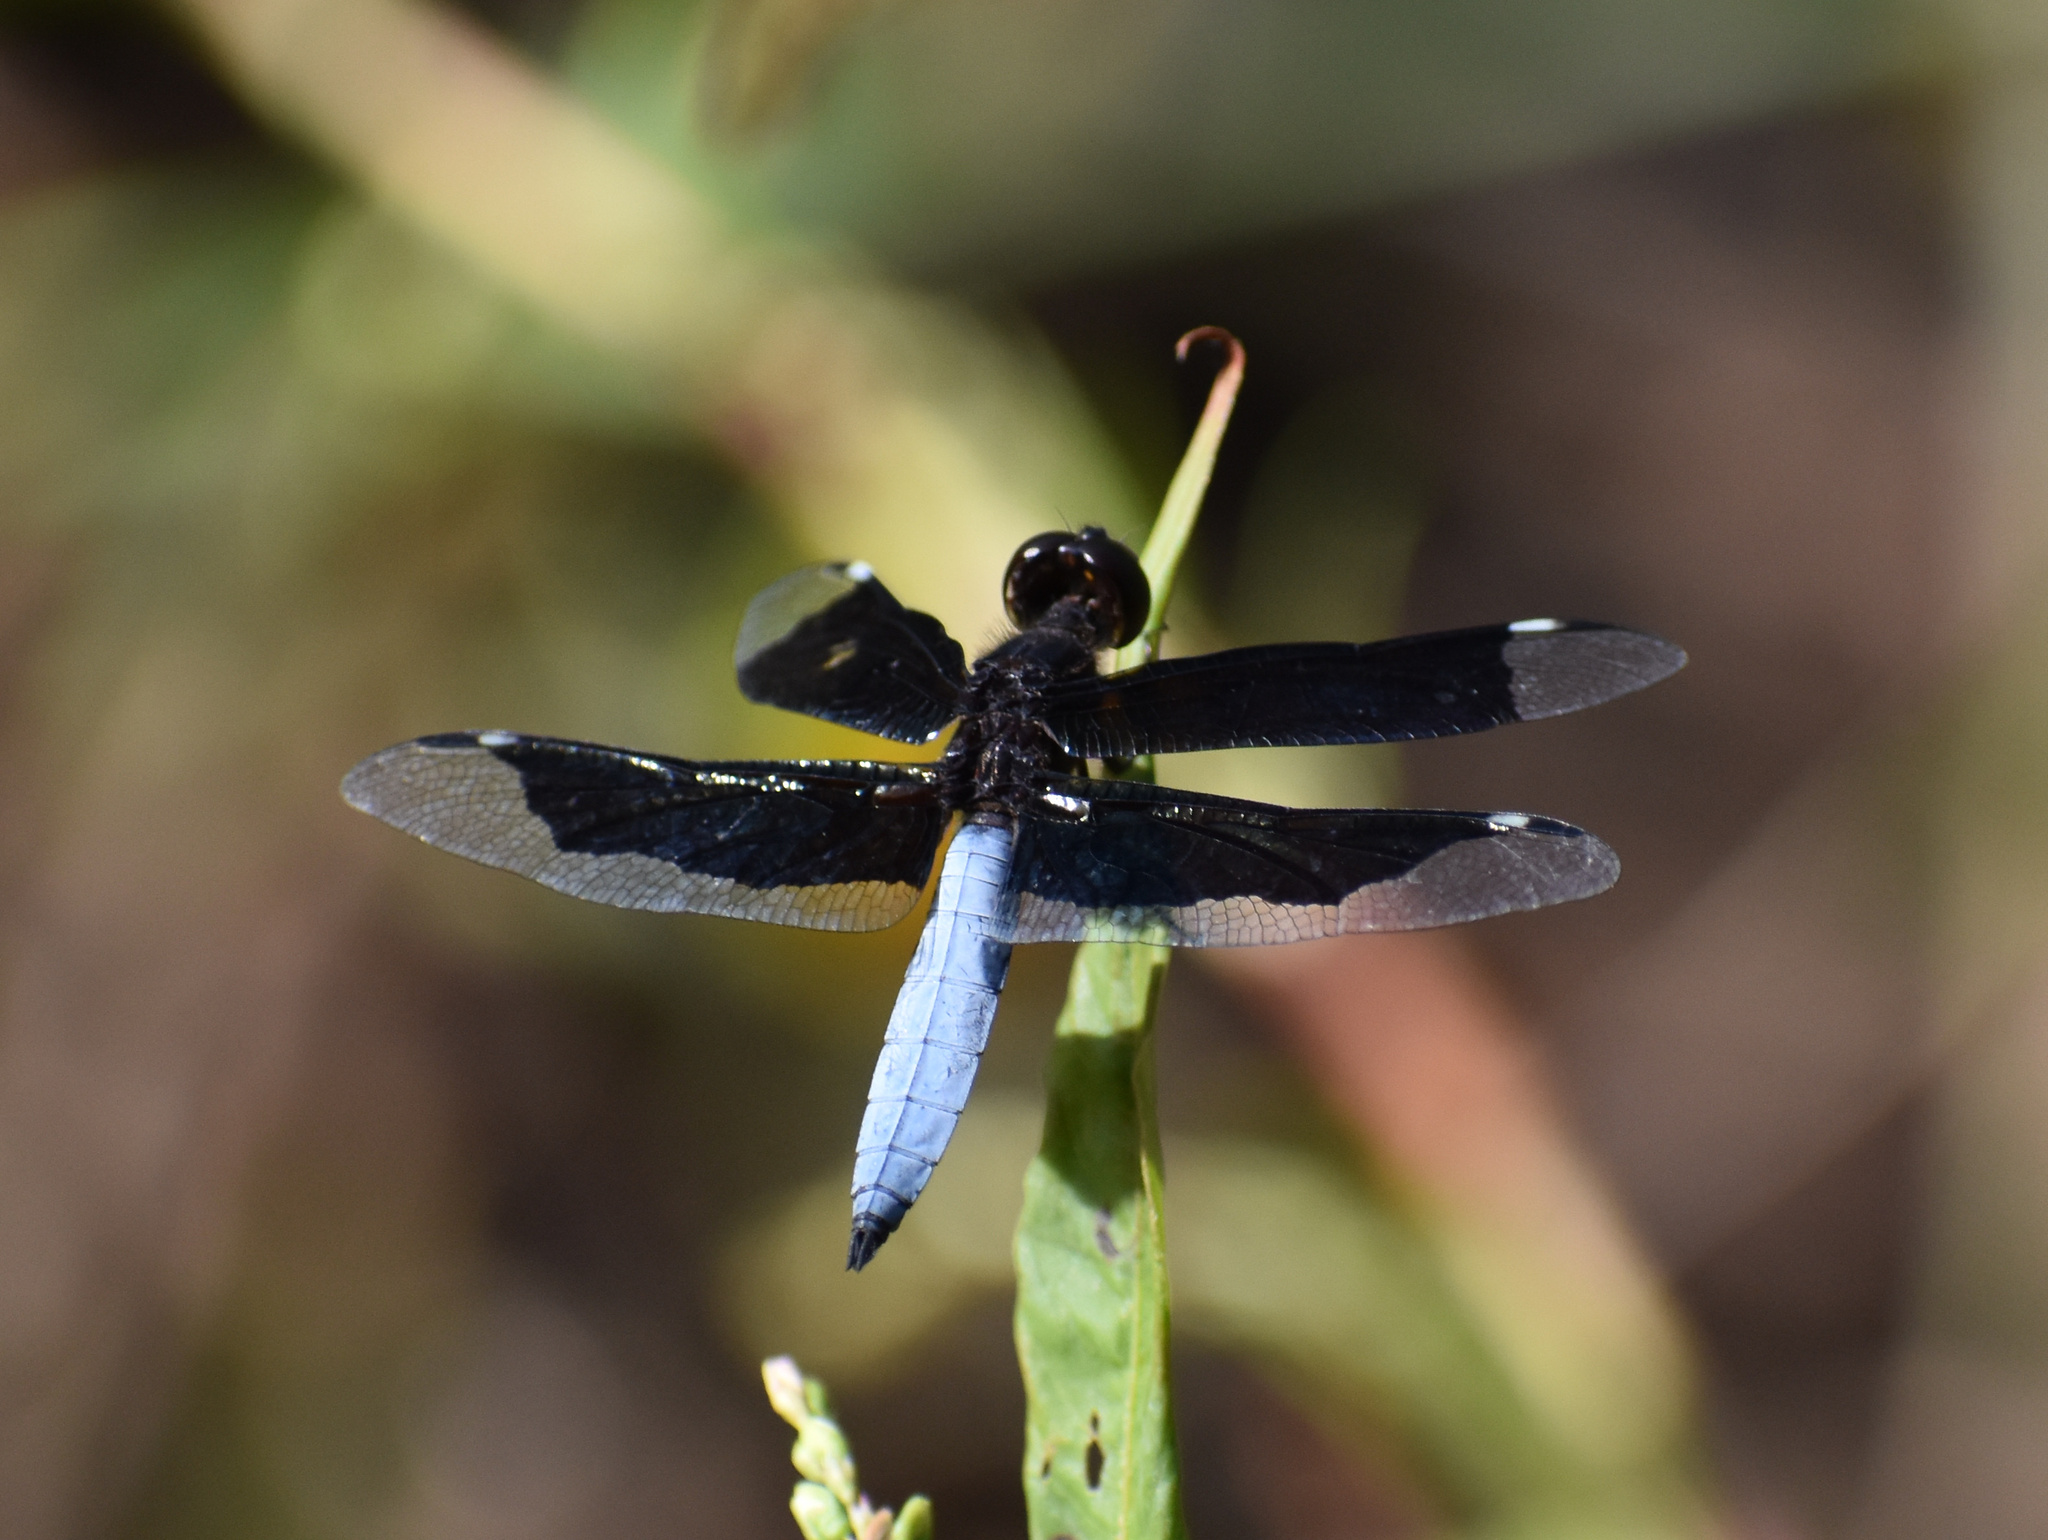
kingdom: Animalia
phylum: Arthropoda
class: Insecta
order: Odonata
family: Libellulidae
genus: Palpopleura
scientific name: Palpopleura lucia
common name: Lucia widow
